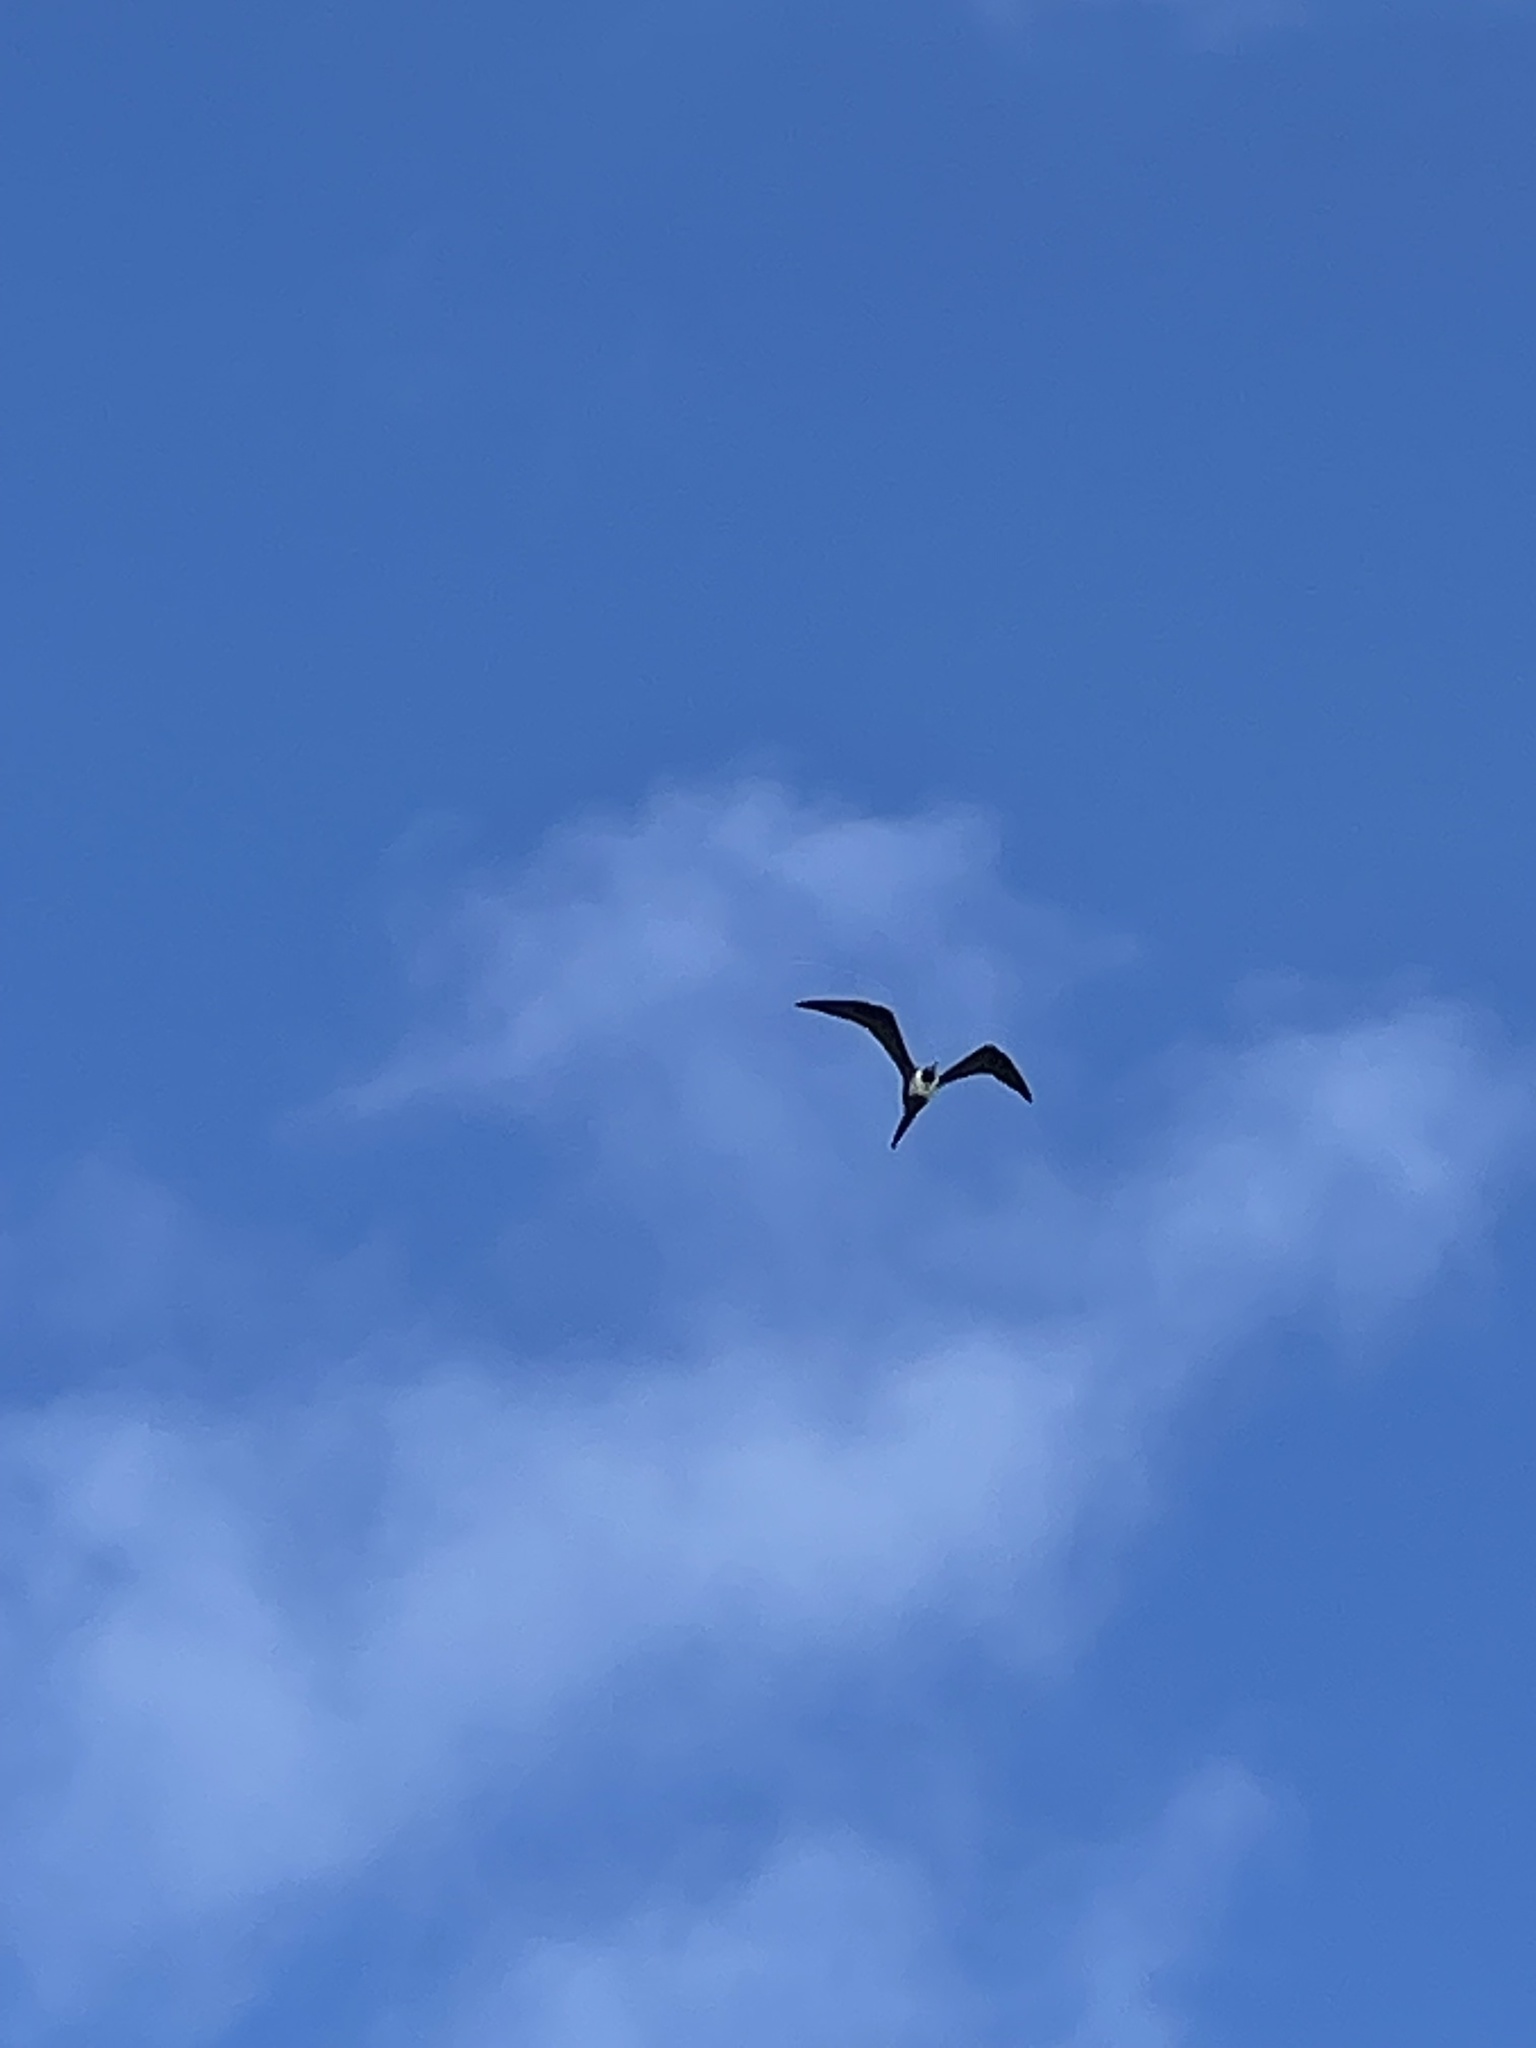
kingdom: Animalia
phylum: Chordata
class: Aves
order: Suliformes
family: Fregatidae
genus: Fregata
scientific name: Fregata magnificens
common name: Magnificent frigatebird
